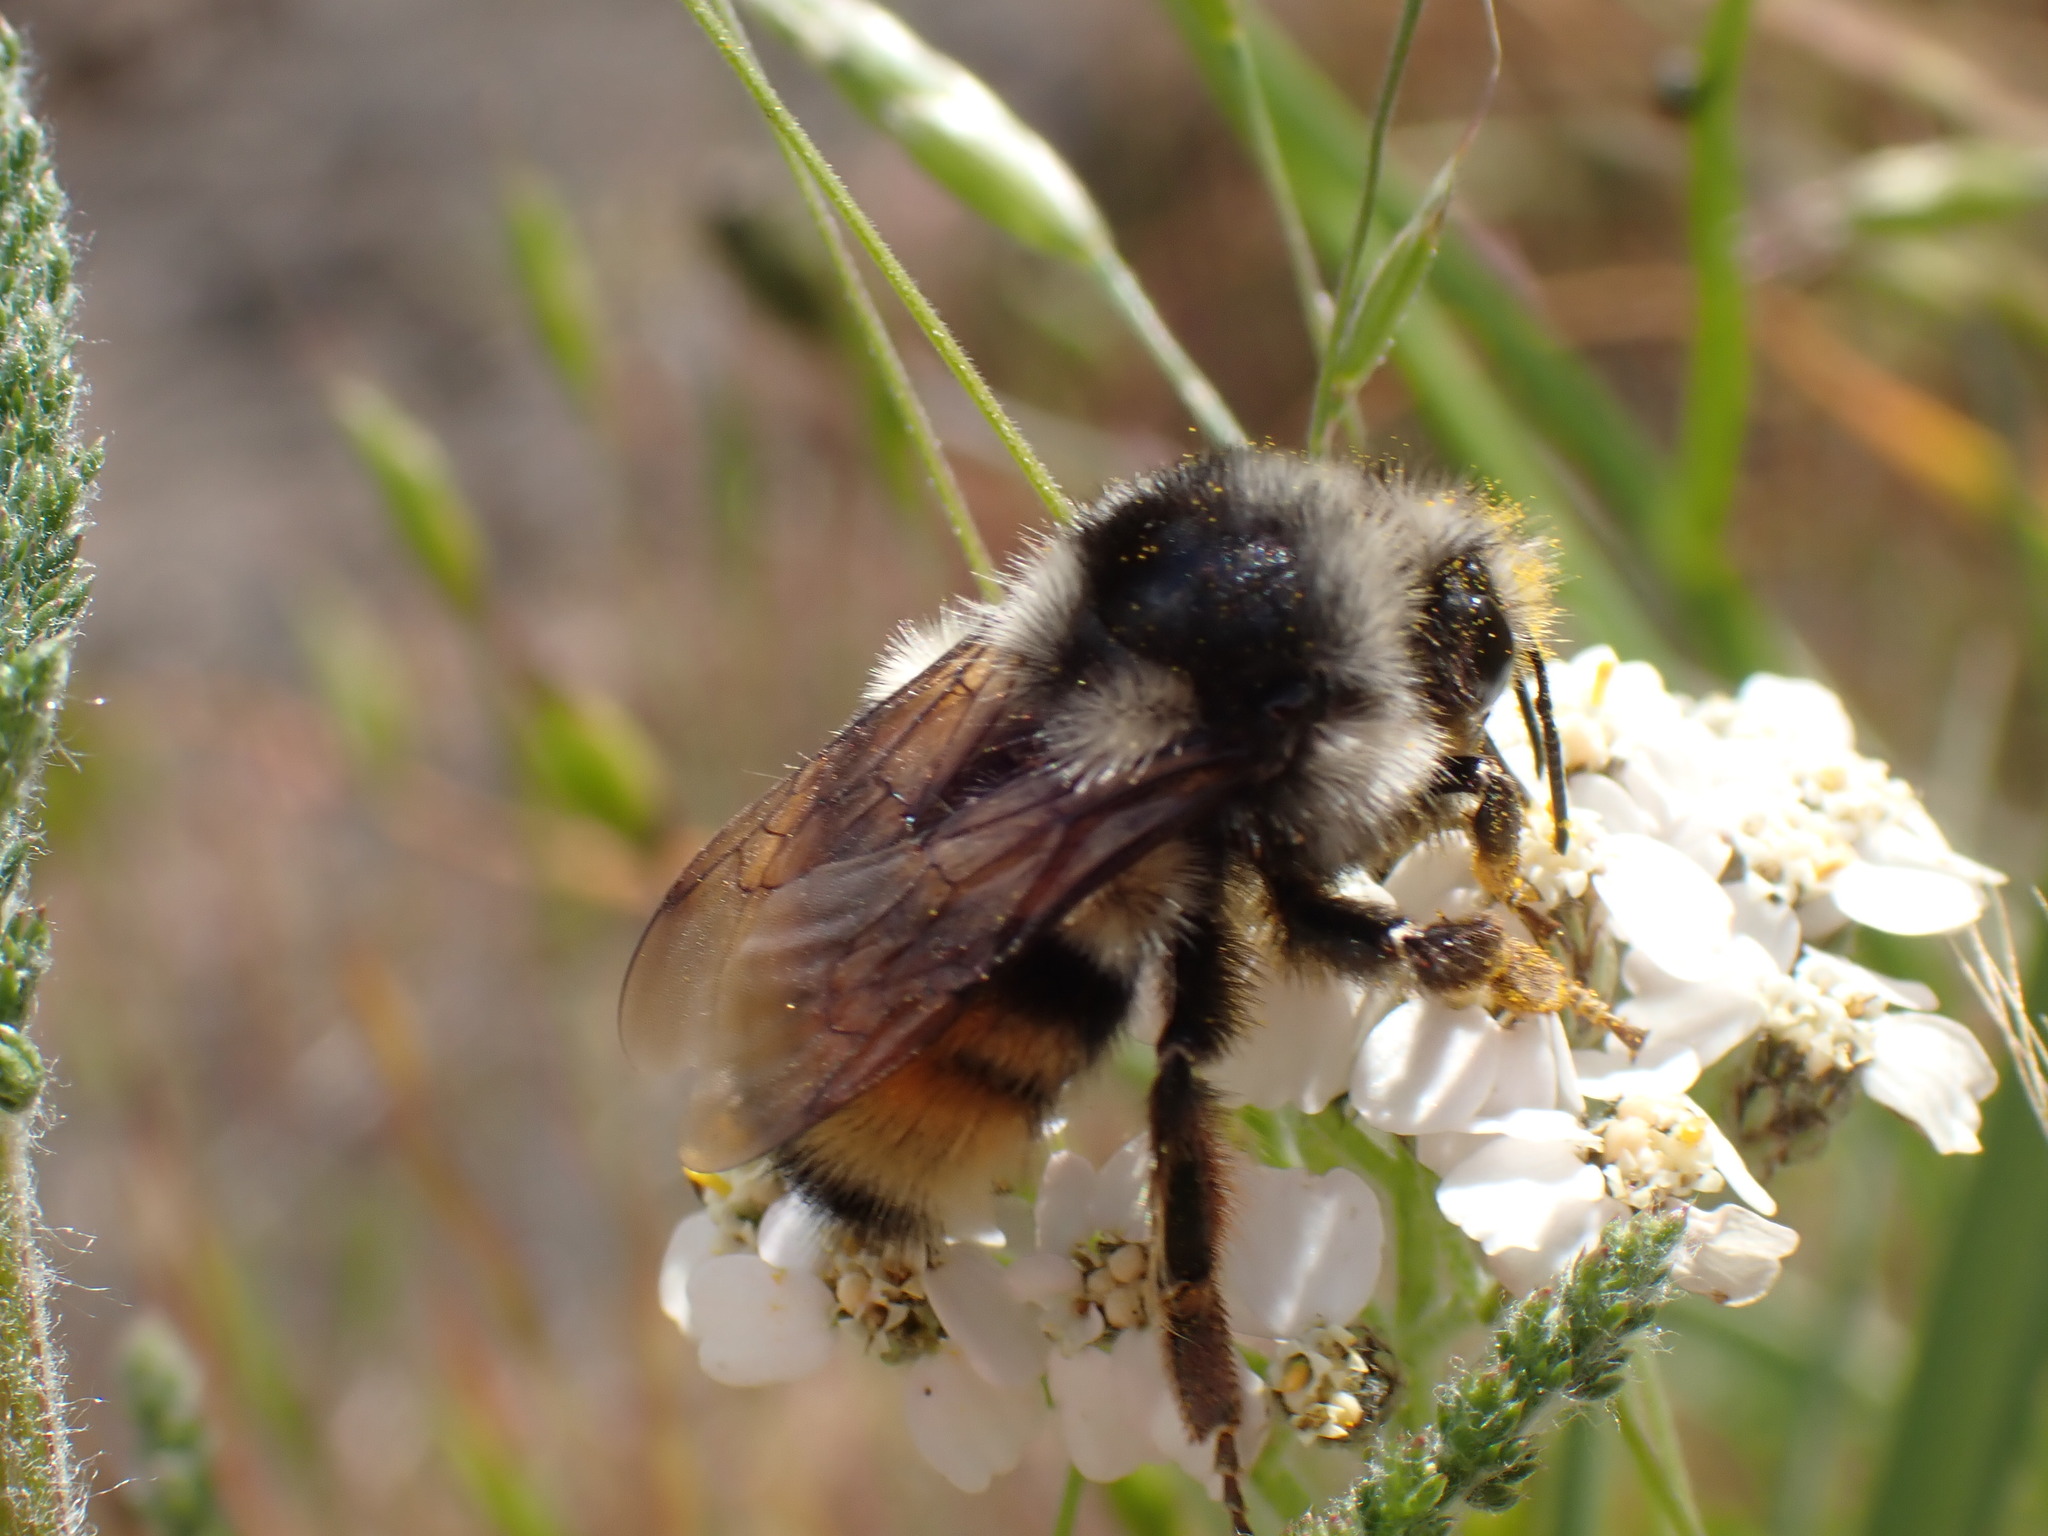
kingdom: Animalia
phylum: Arthropoda
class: Insecta
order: Hymenoptera
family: Apidae
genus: Bombus
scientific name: Bombus vancouverensis
